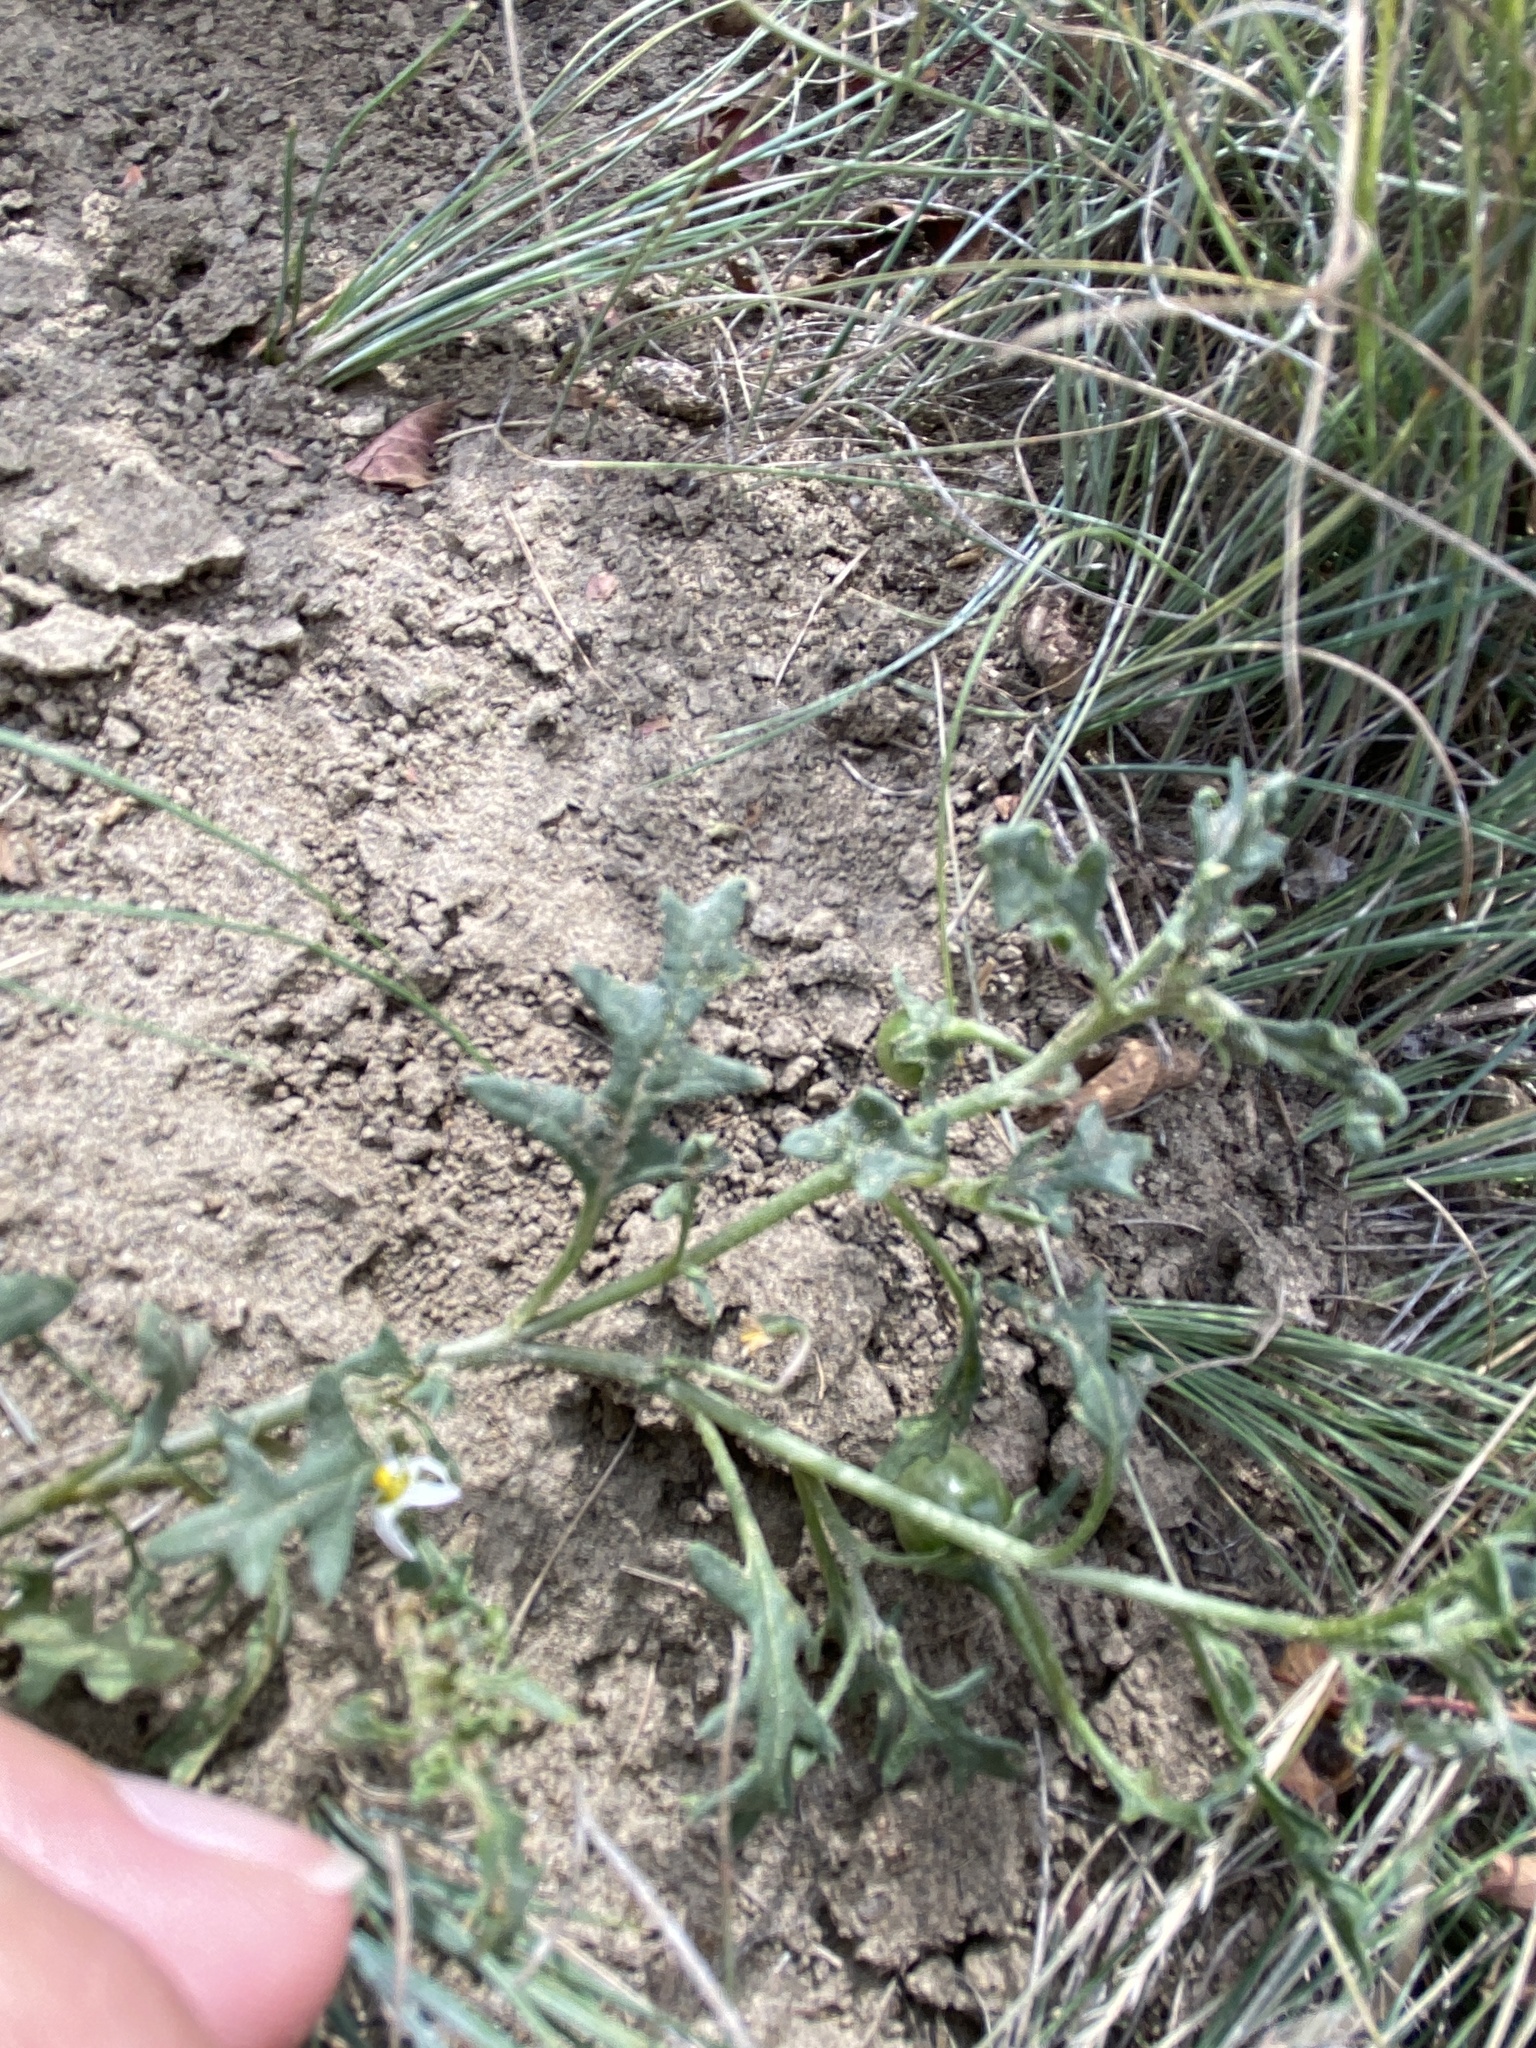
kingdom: Plantae
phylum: Tracheophyta
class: Magnoliopsida
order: Solanales
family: Solanaceae
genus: Solanum
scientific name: Solanum triflorum
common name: Small nightshade
